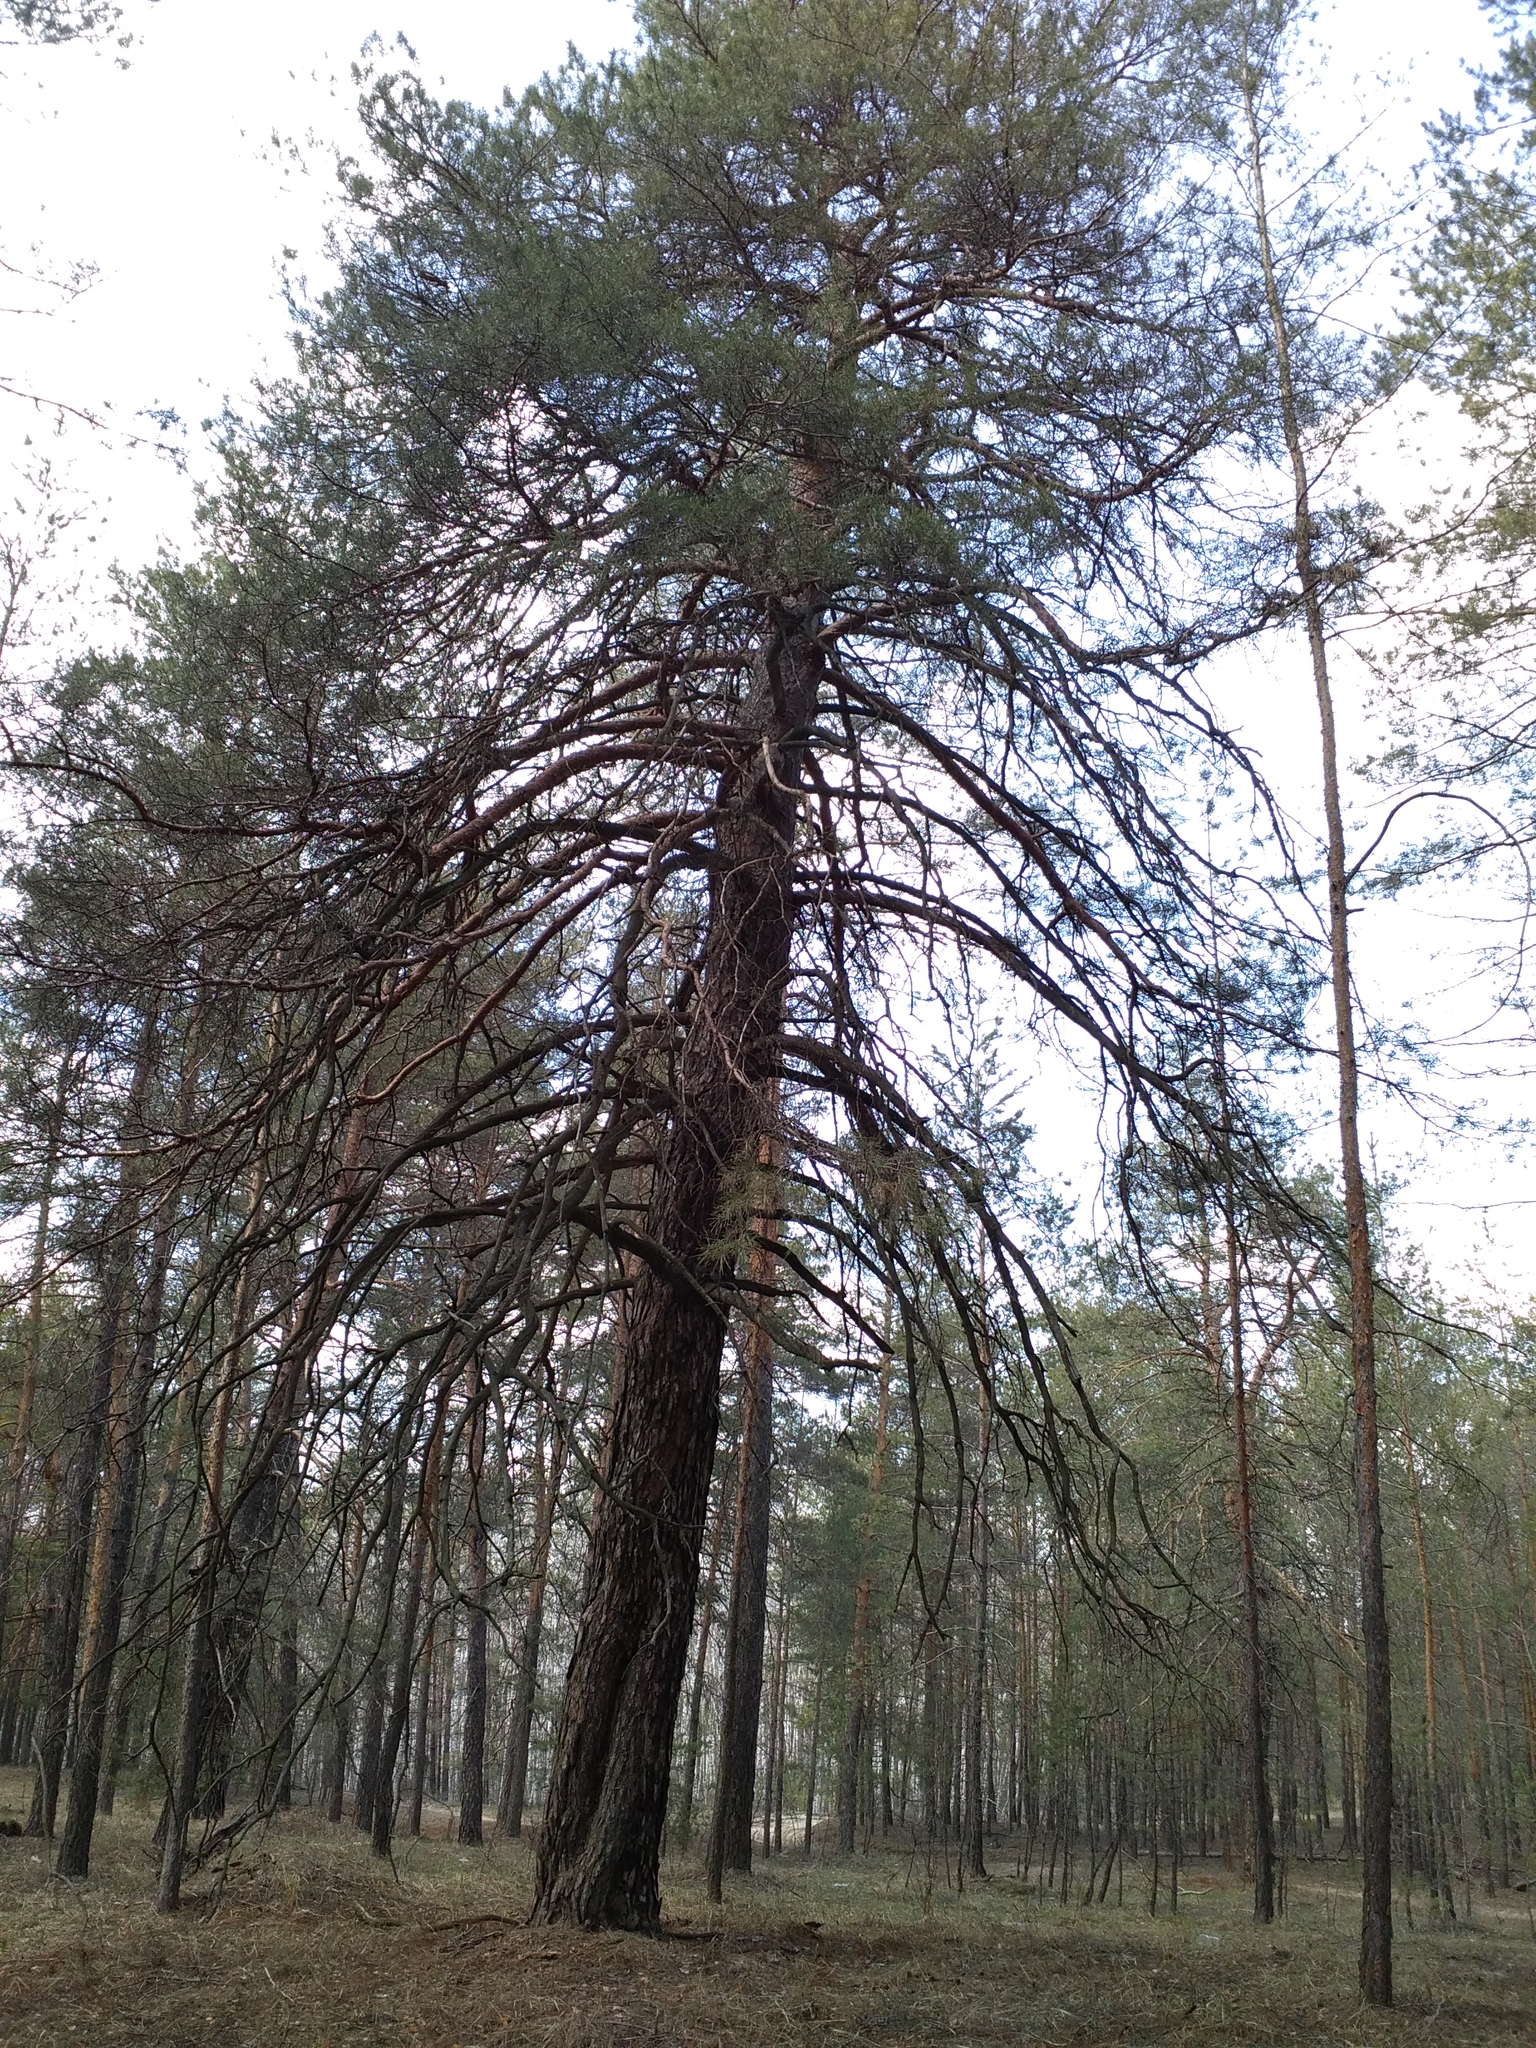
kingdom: Plantae
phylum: Tracheophyta
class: Pinopsida
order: Pinales
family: Pinaceae
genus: Pinus
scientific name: Pinus sylvestris
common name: Scots pine
